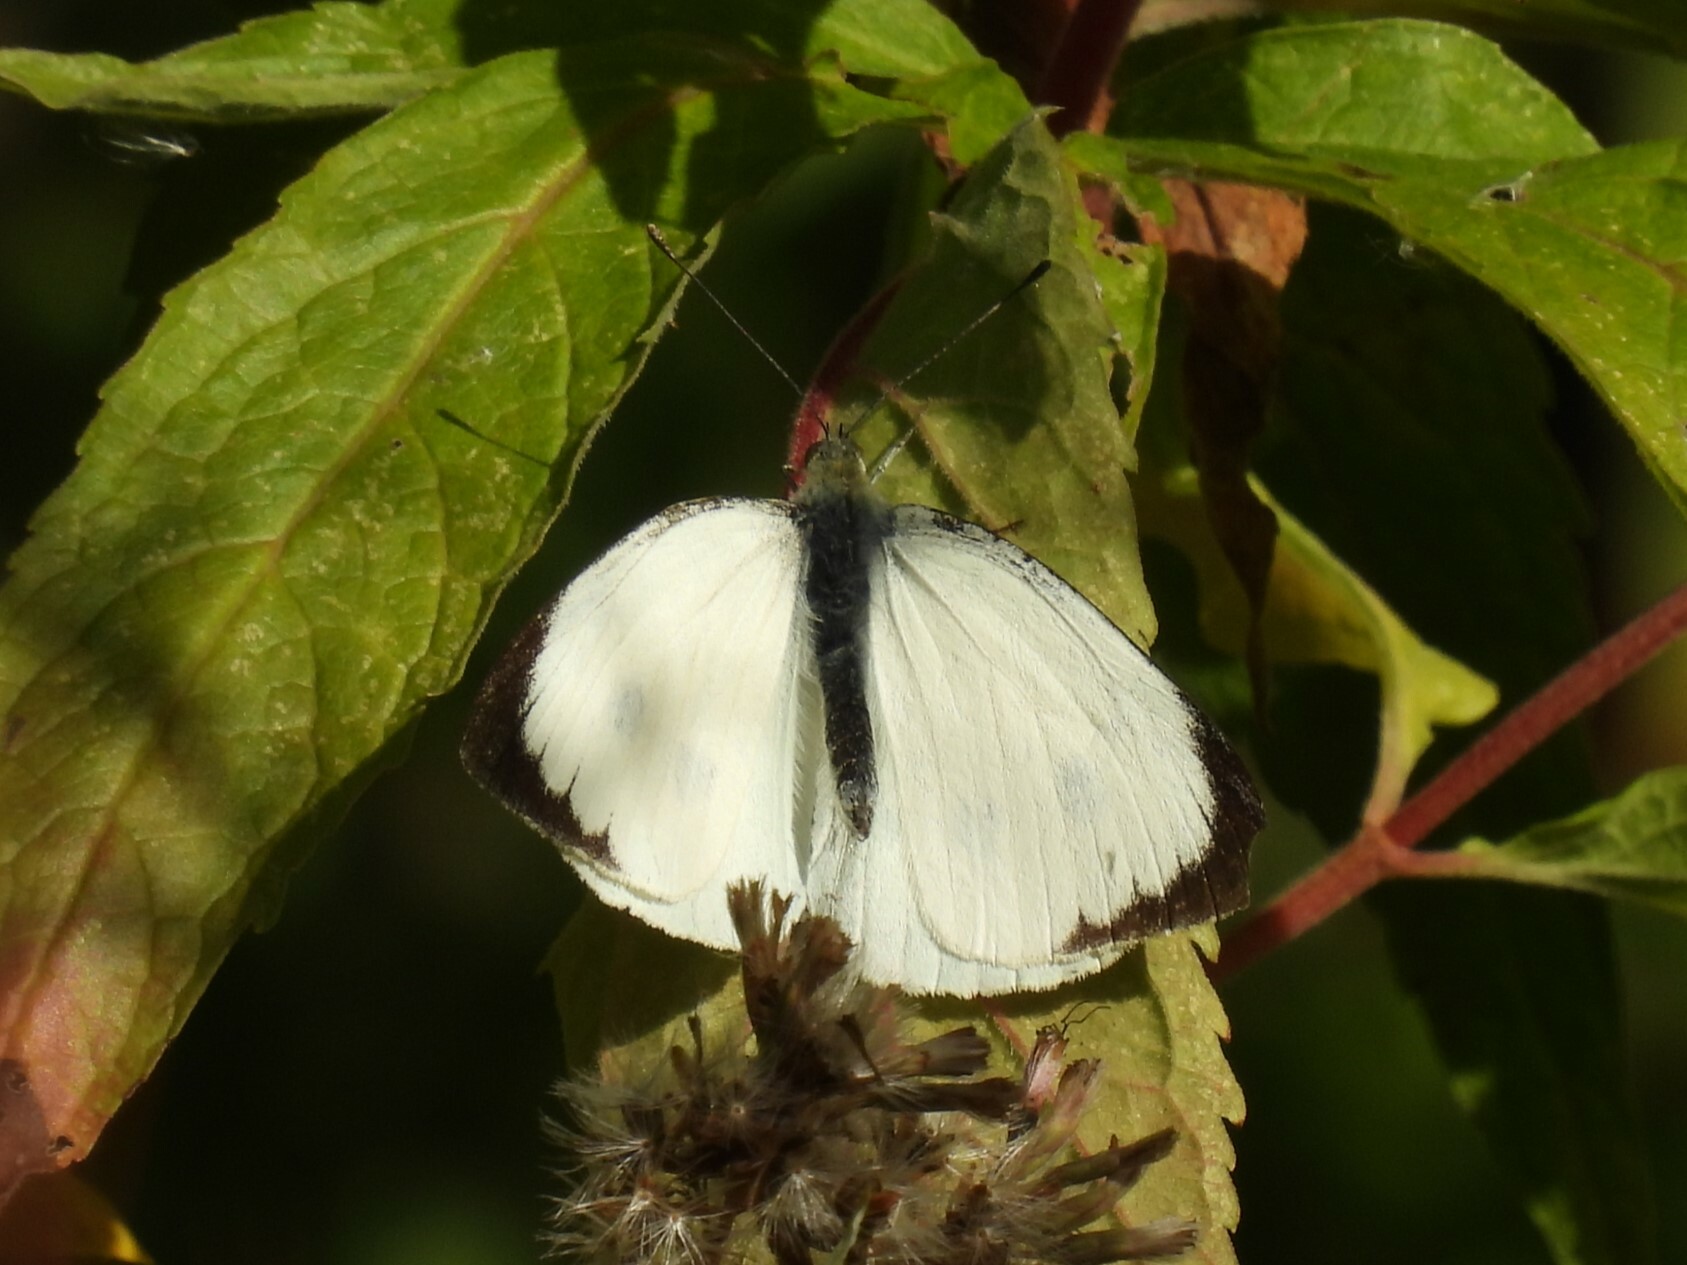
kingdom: Animalia
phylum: Arthropoda
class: Insecta
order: Lepidoptera
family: Pieridae
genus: Pieris
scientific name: Pieris brassicae
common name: Large white
